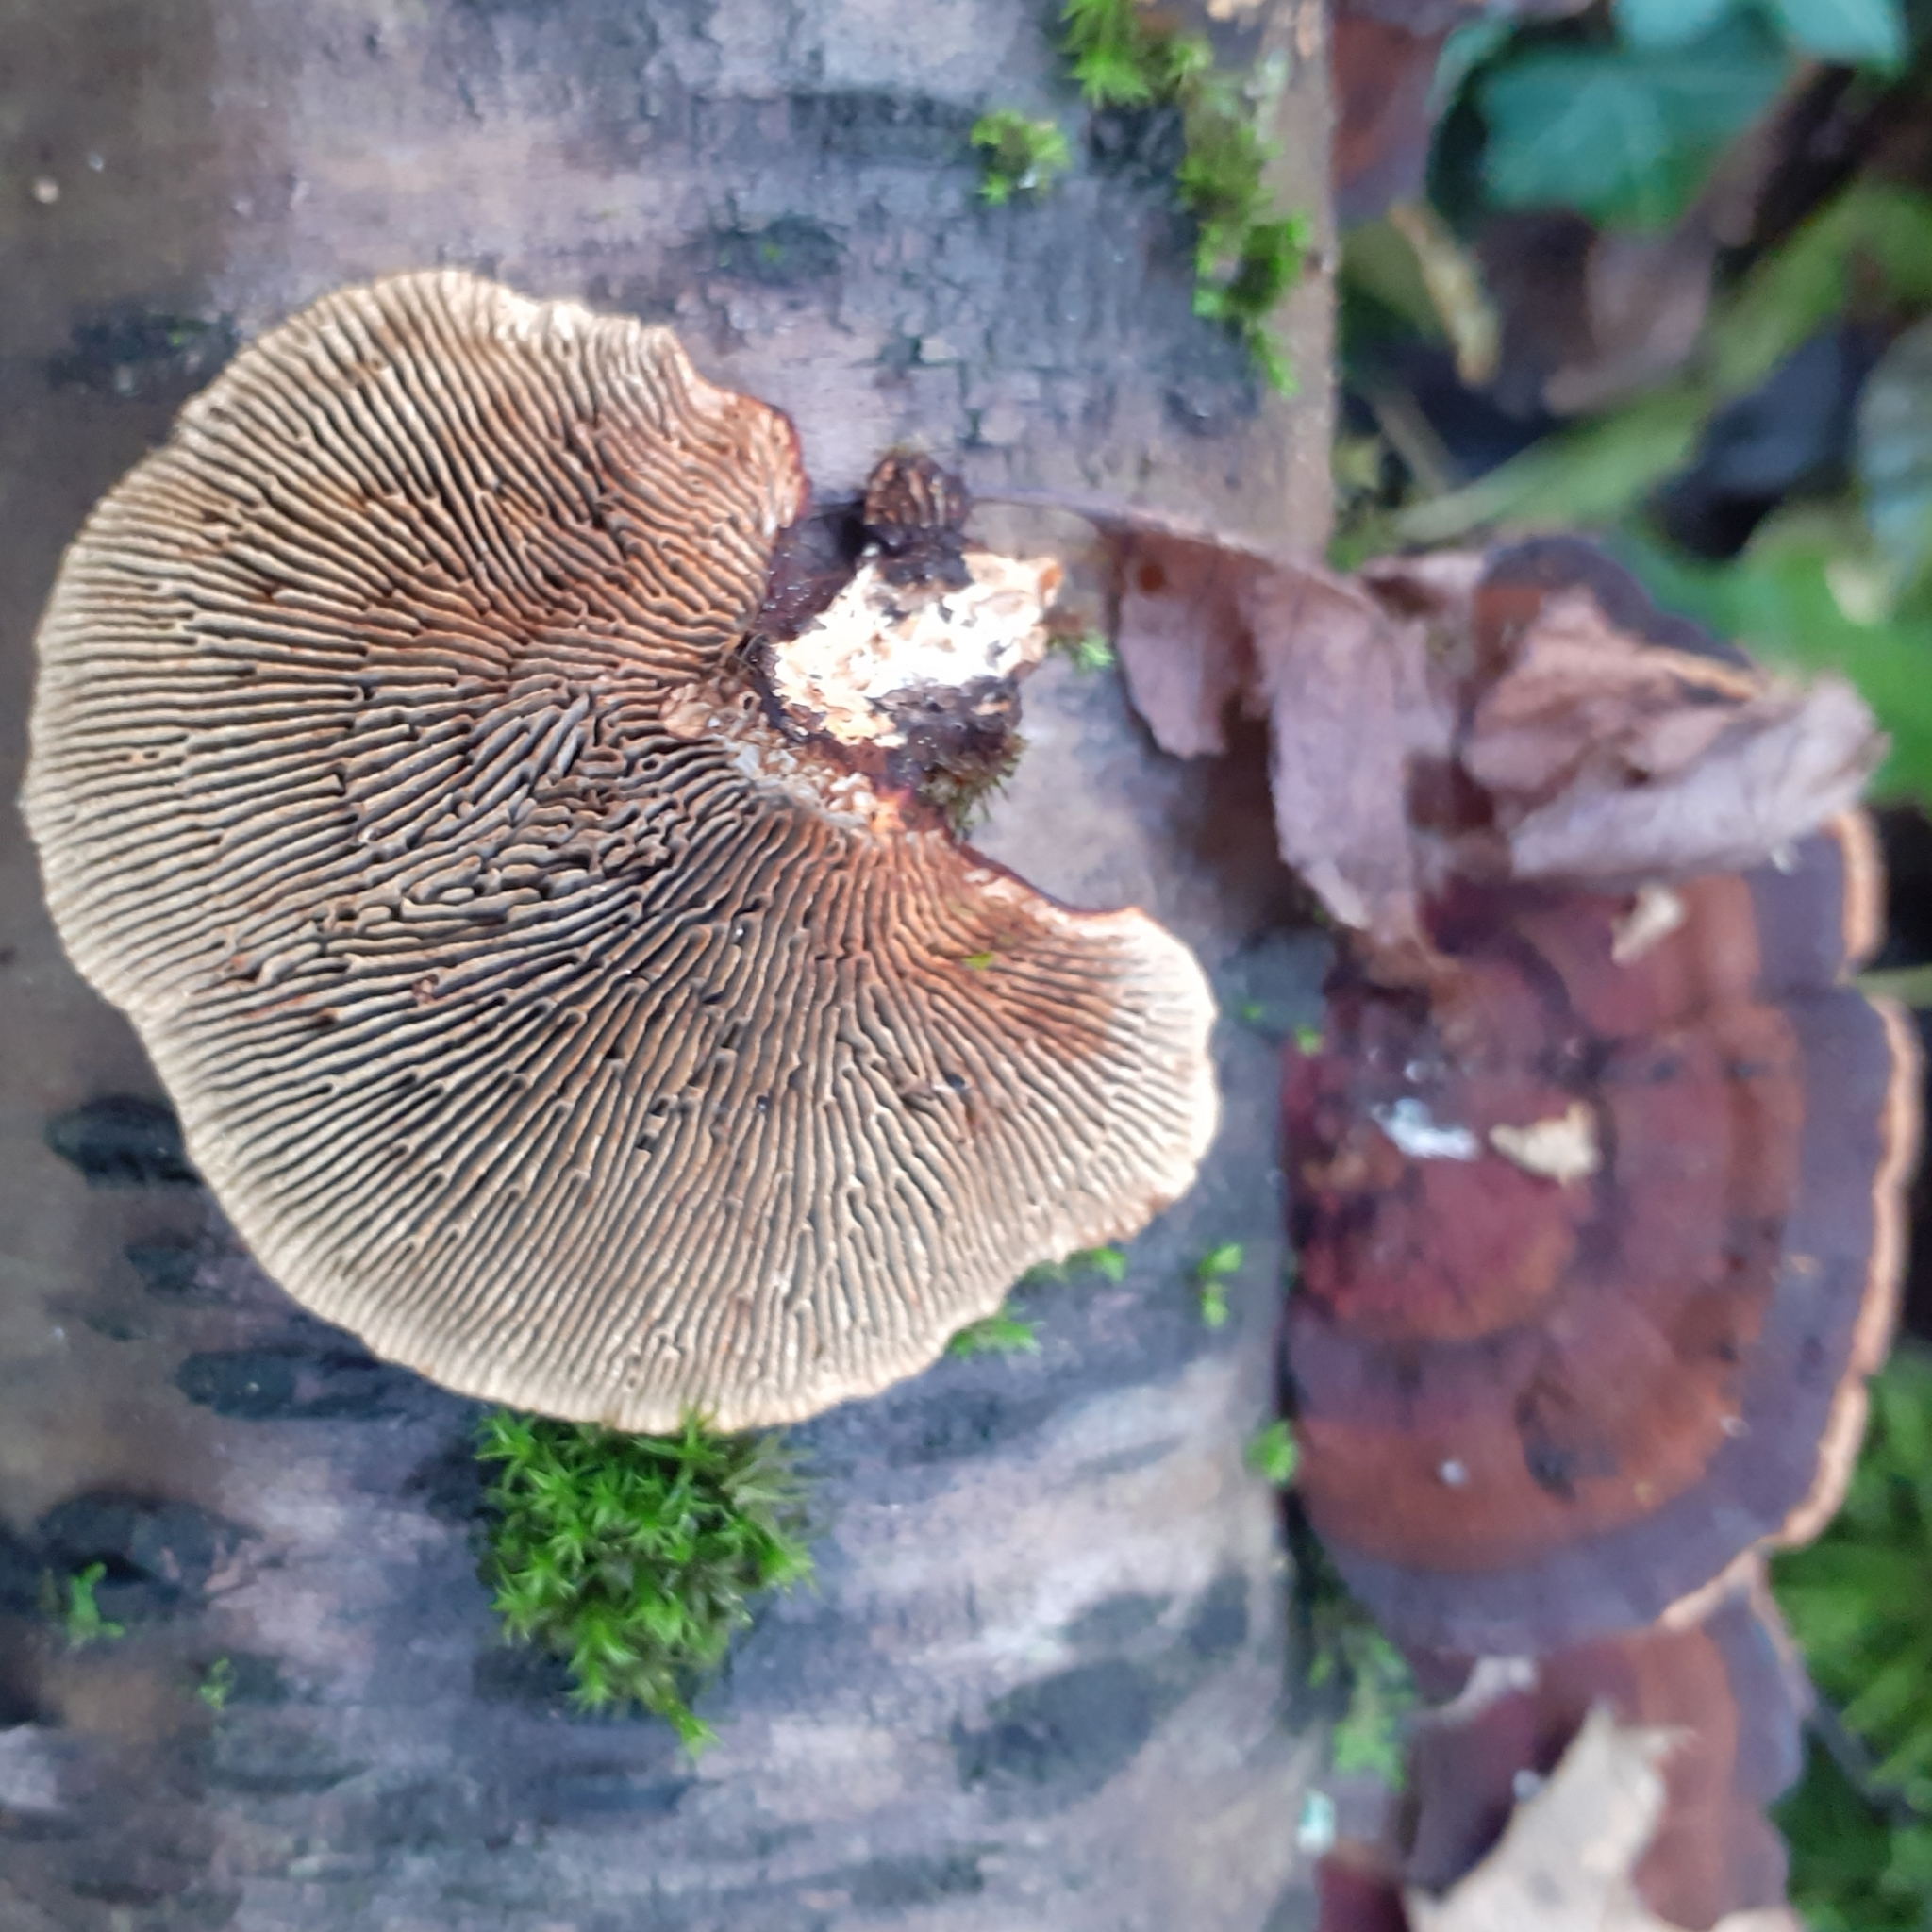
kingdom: Fungi
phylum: Basidiomycota
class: Agaricomycetes
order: Polyporales
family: Polyporaceae
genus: Daedaleopsis
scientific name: Daedaleopsis tricolor
